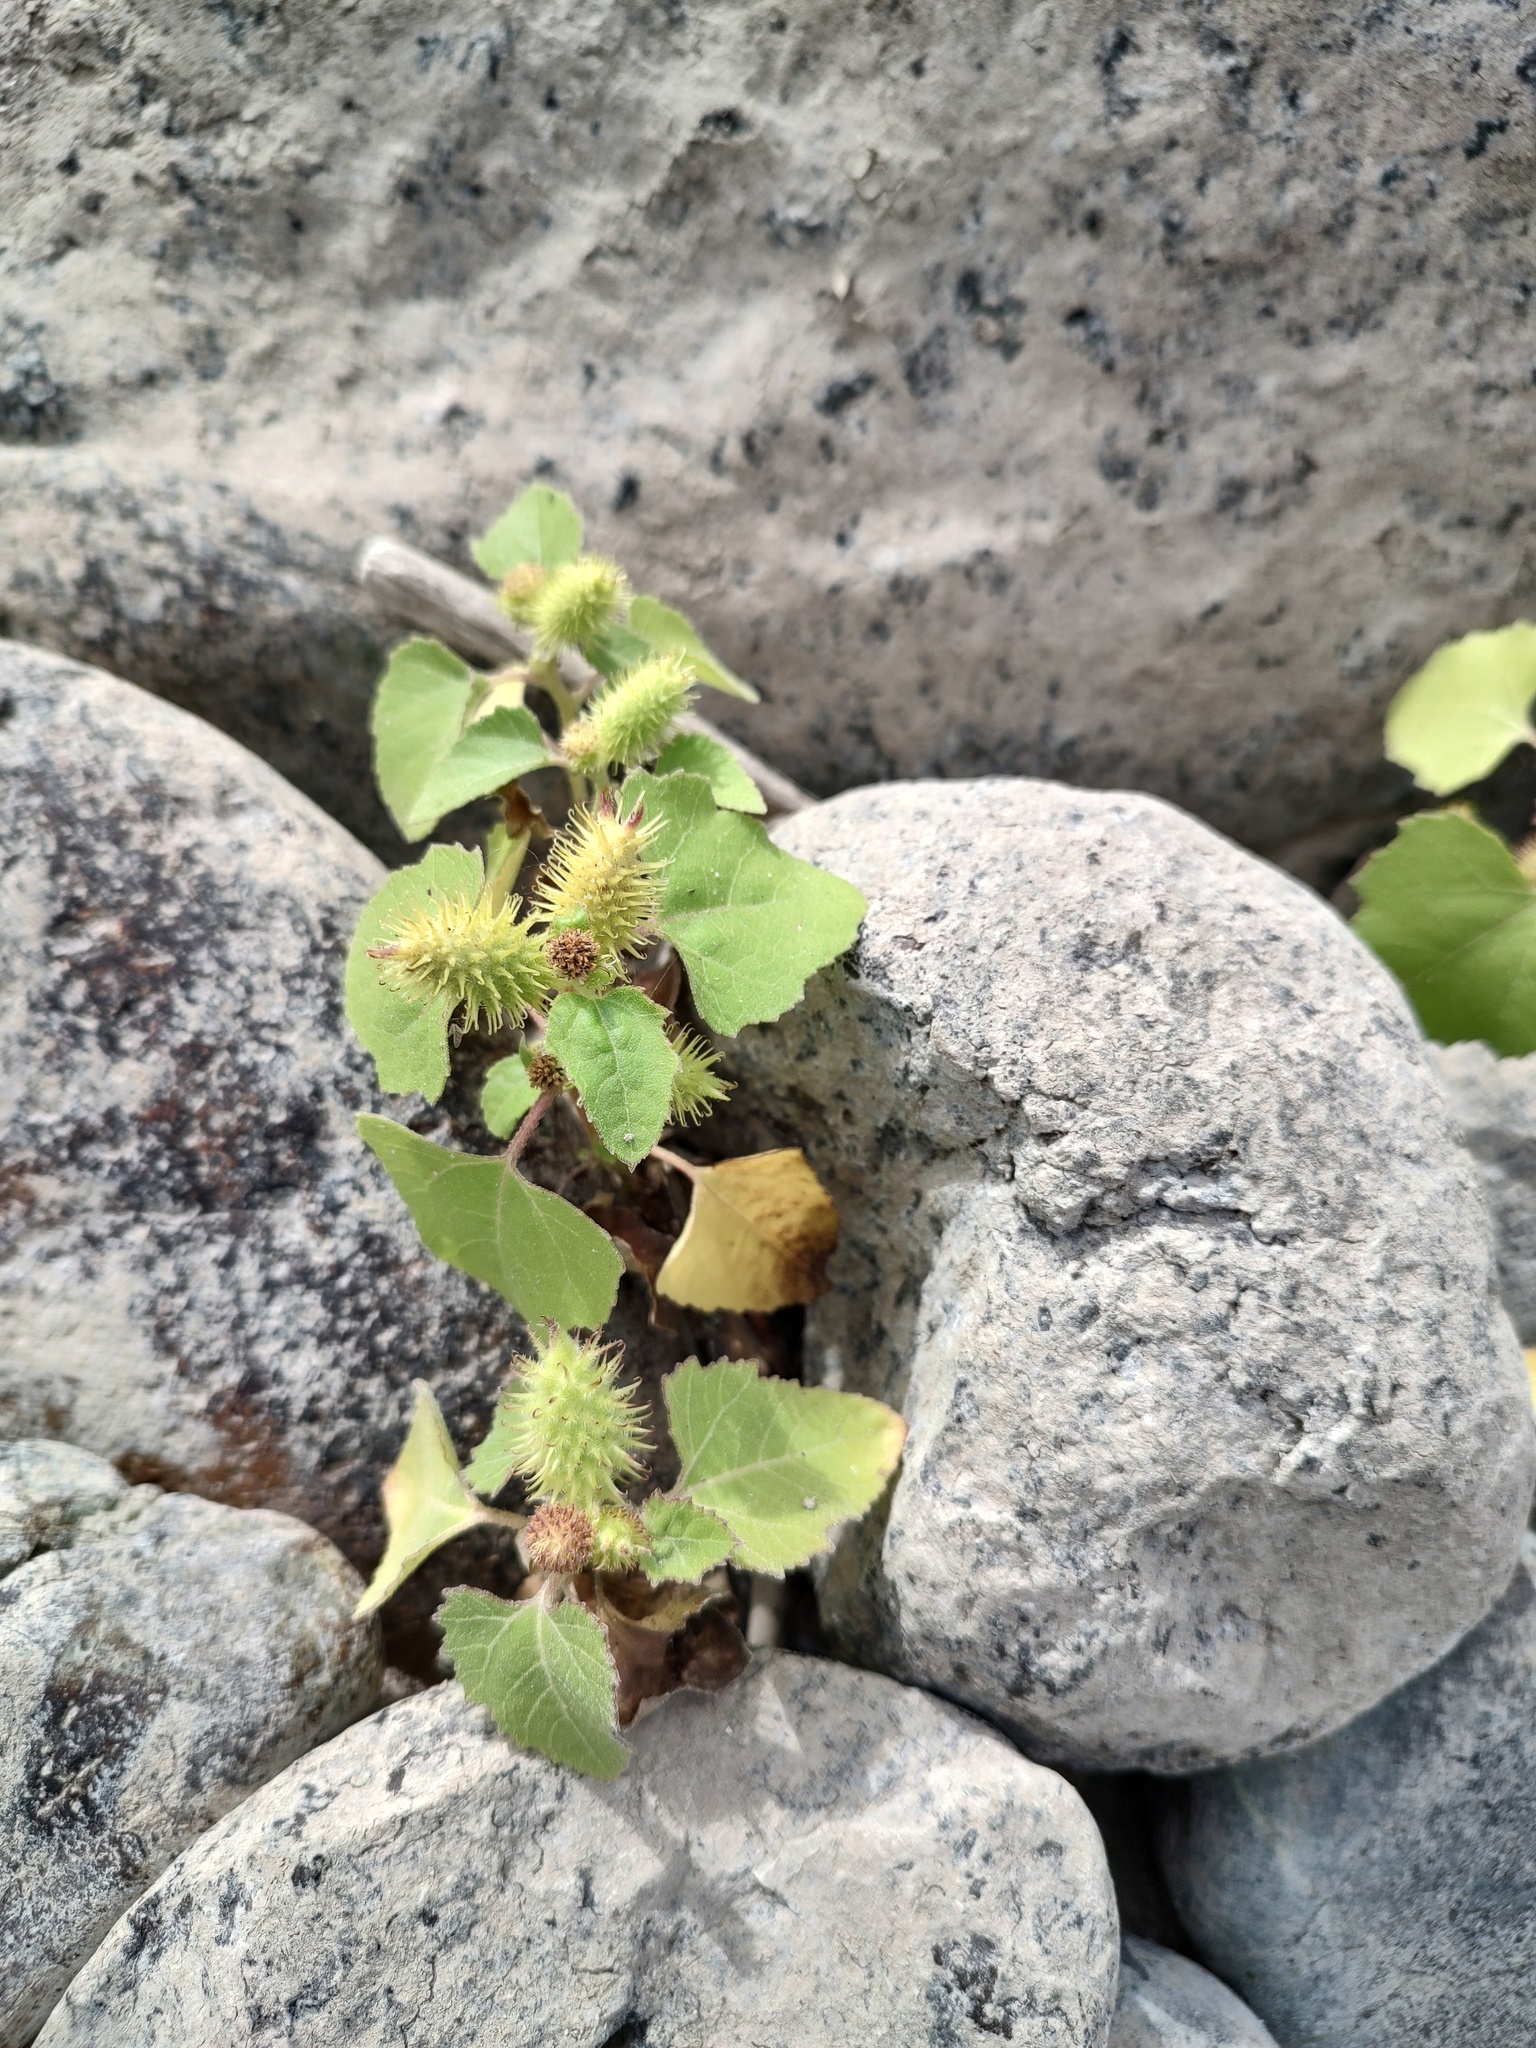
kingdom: Plantae
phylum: Tracheophyta
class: Magnoliopsida
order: Asterales
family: Asteraceae
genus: Xanthium
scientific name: Xanthium strumarium
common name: Rough cocklebur
